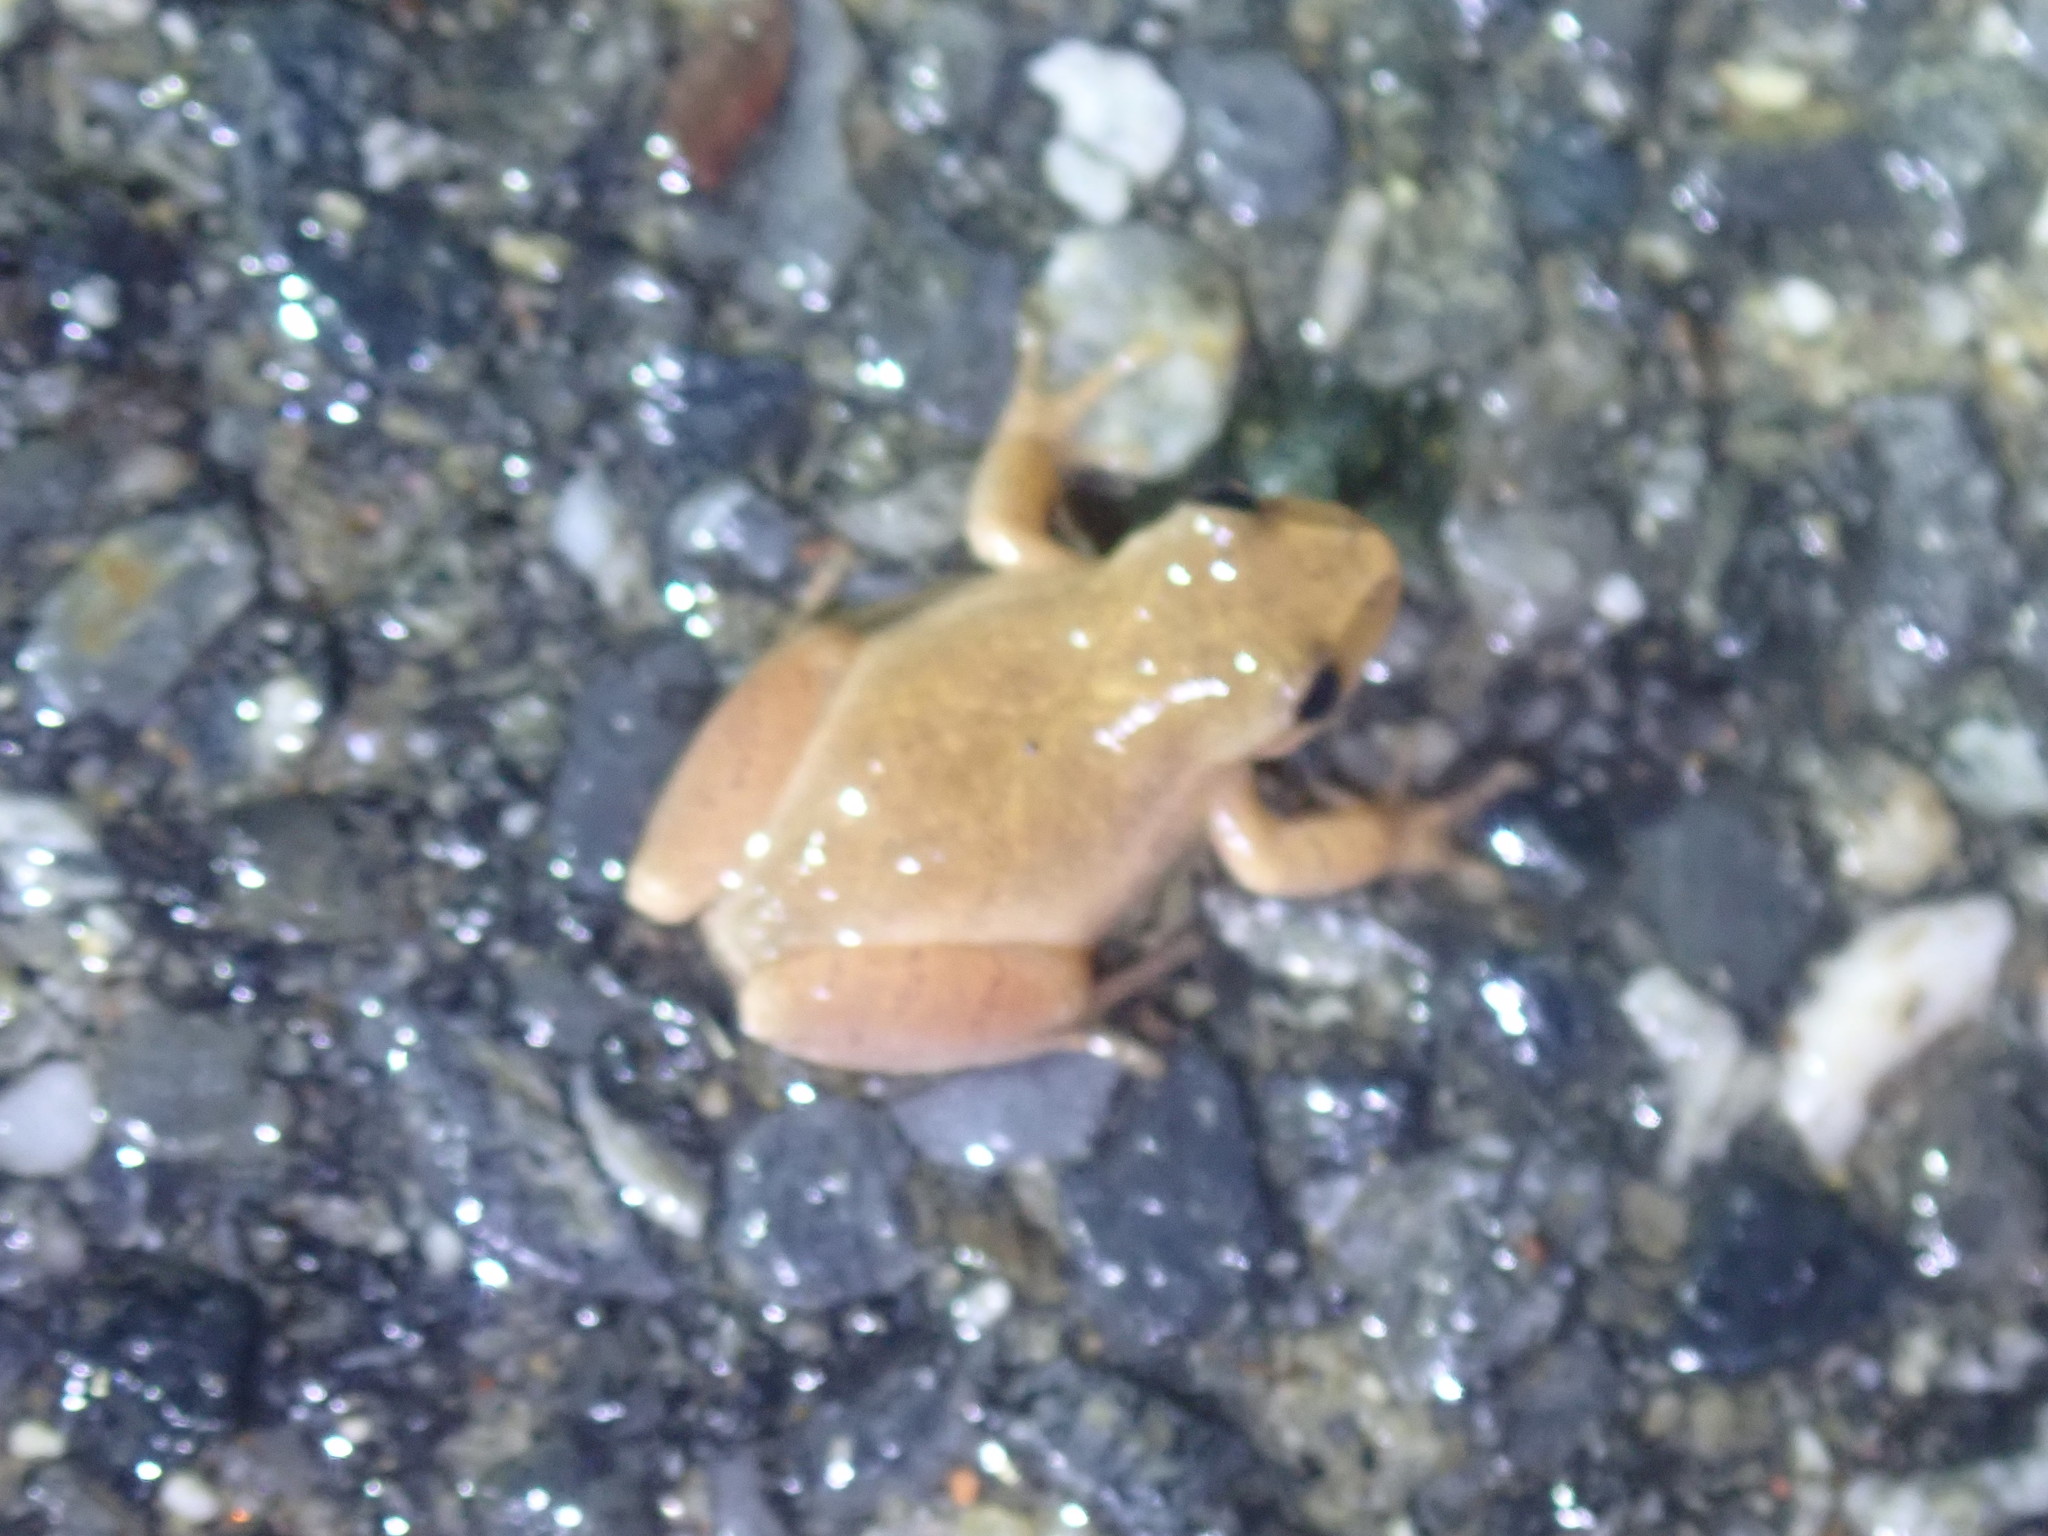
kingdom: Animalia
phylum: Chordata
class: Amphibia
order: Anura
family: Hylidae
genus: Pseudacris
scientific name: Pseudacris crucifer
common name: Spring peeper
